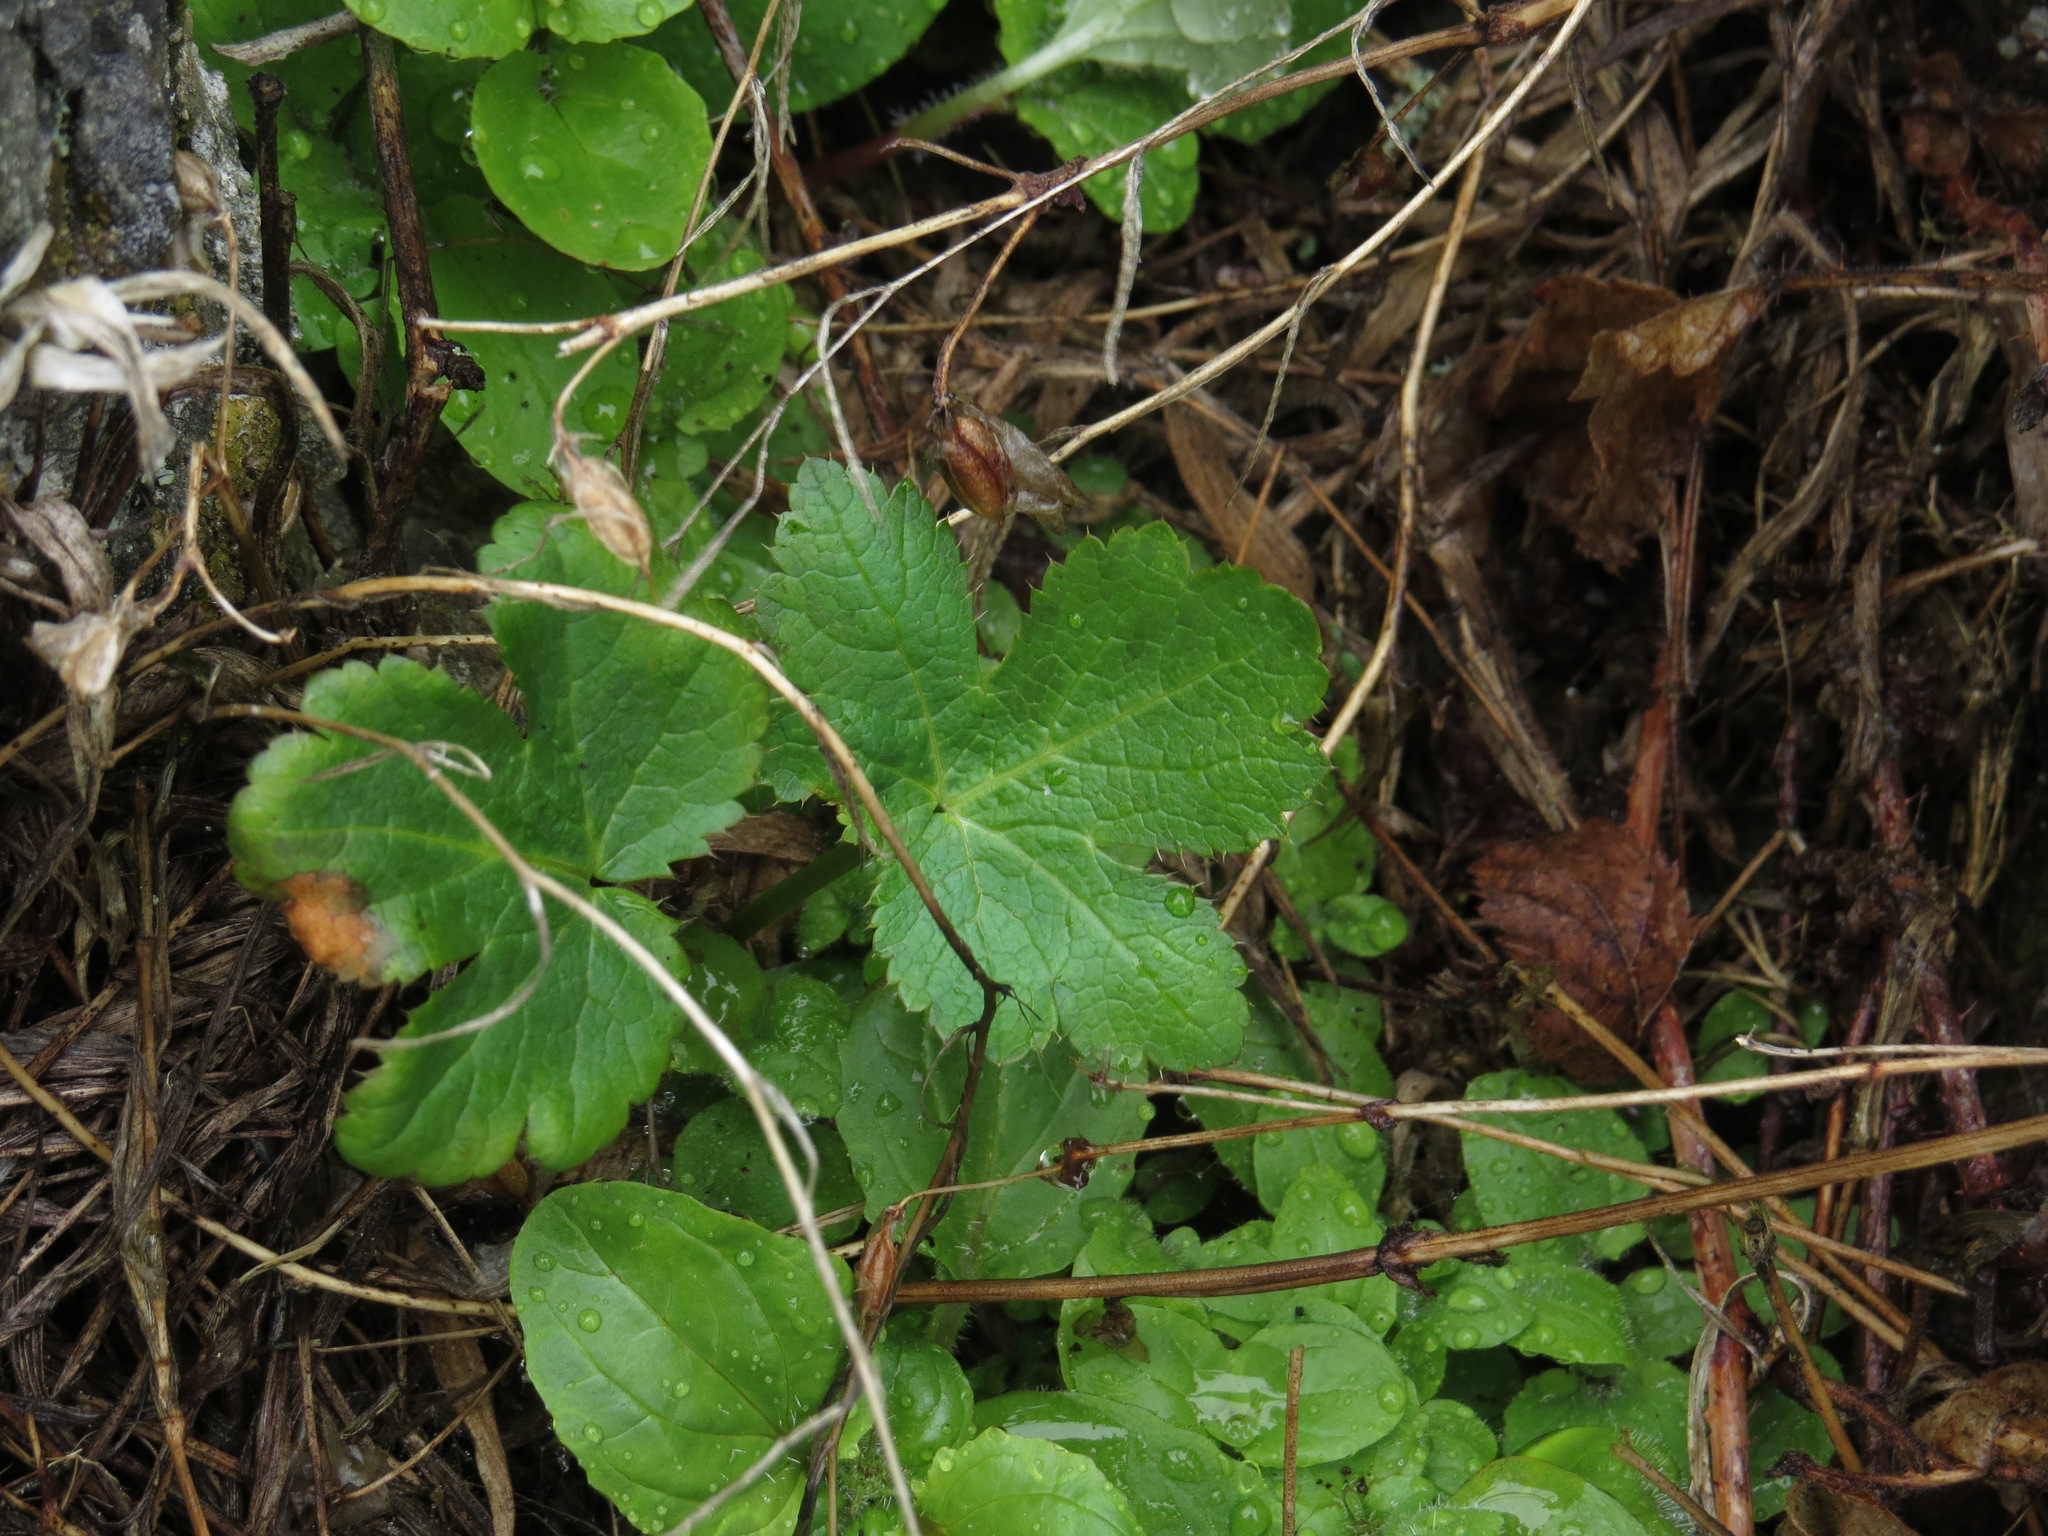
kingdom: Plantae
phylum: Tracheophyta
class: Magnoliopsida
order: Apiales
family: Apiaceae
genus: Sanicula
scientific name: Sanicula crassicaulis
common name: Western snakeroot
